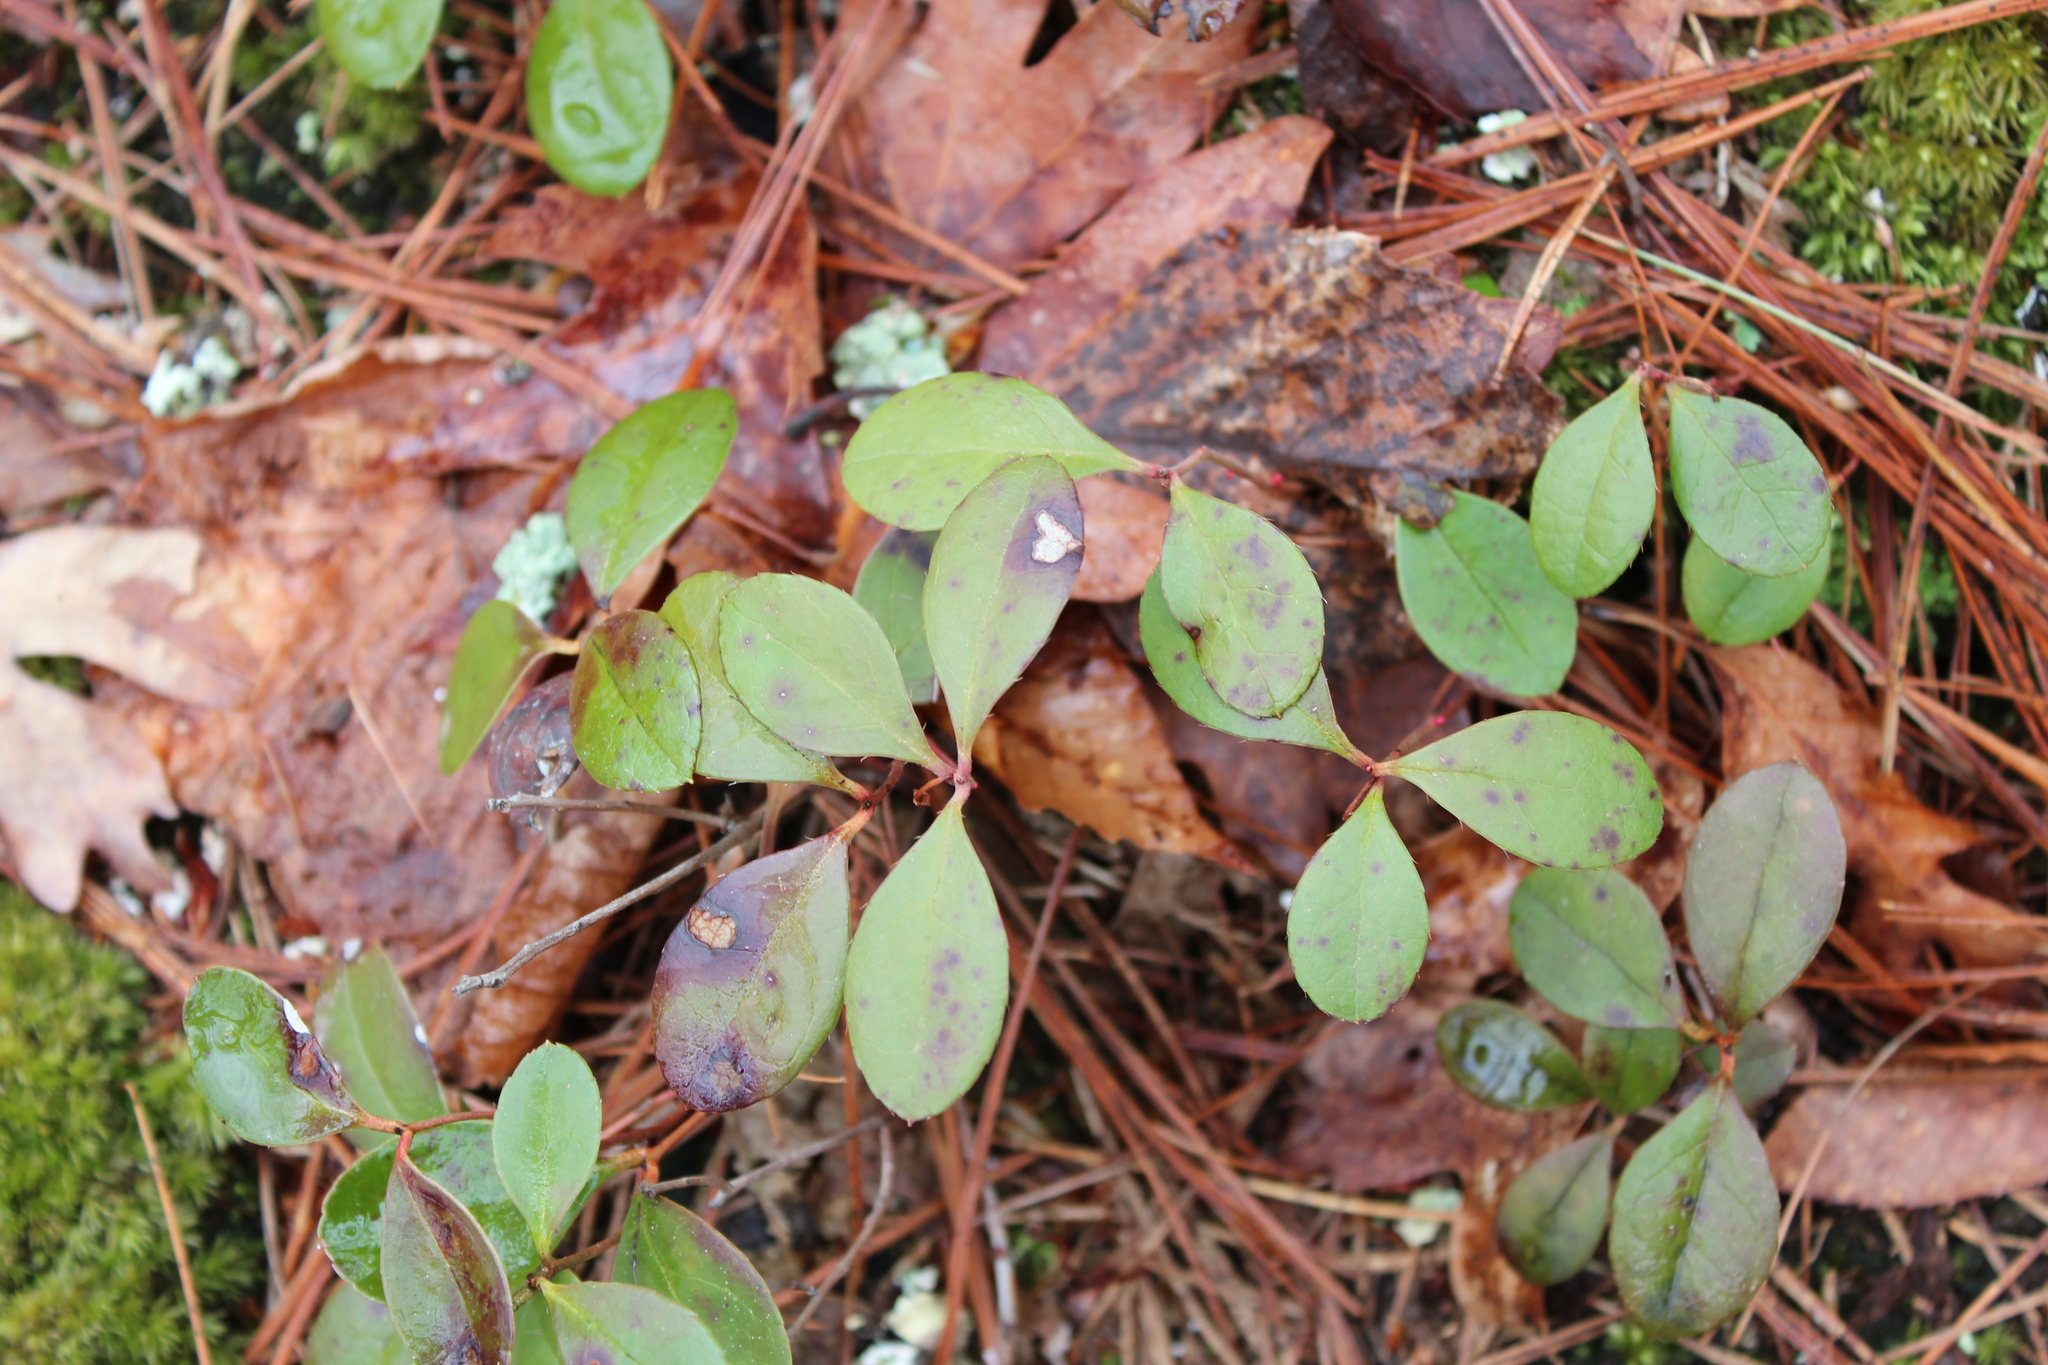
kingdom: Plantae
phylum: Tracheophyta
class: Magnoliopsida
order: Ericales
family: Ericaceae
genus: Gaultheria
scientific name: Gaultheria procumbens
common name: Checkerberry
